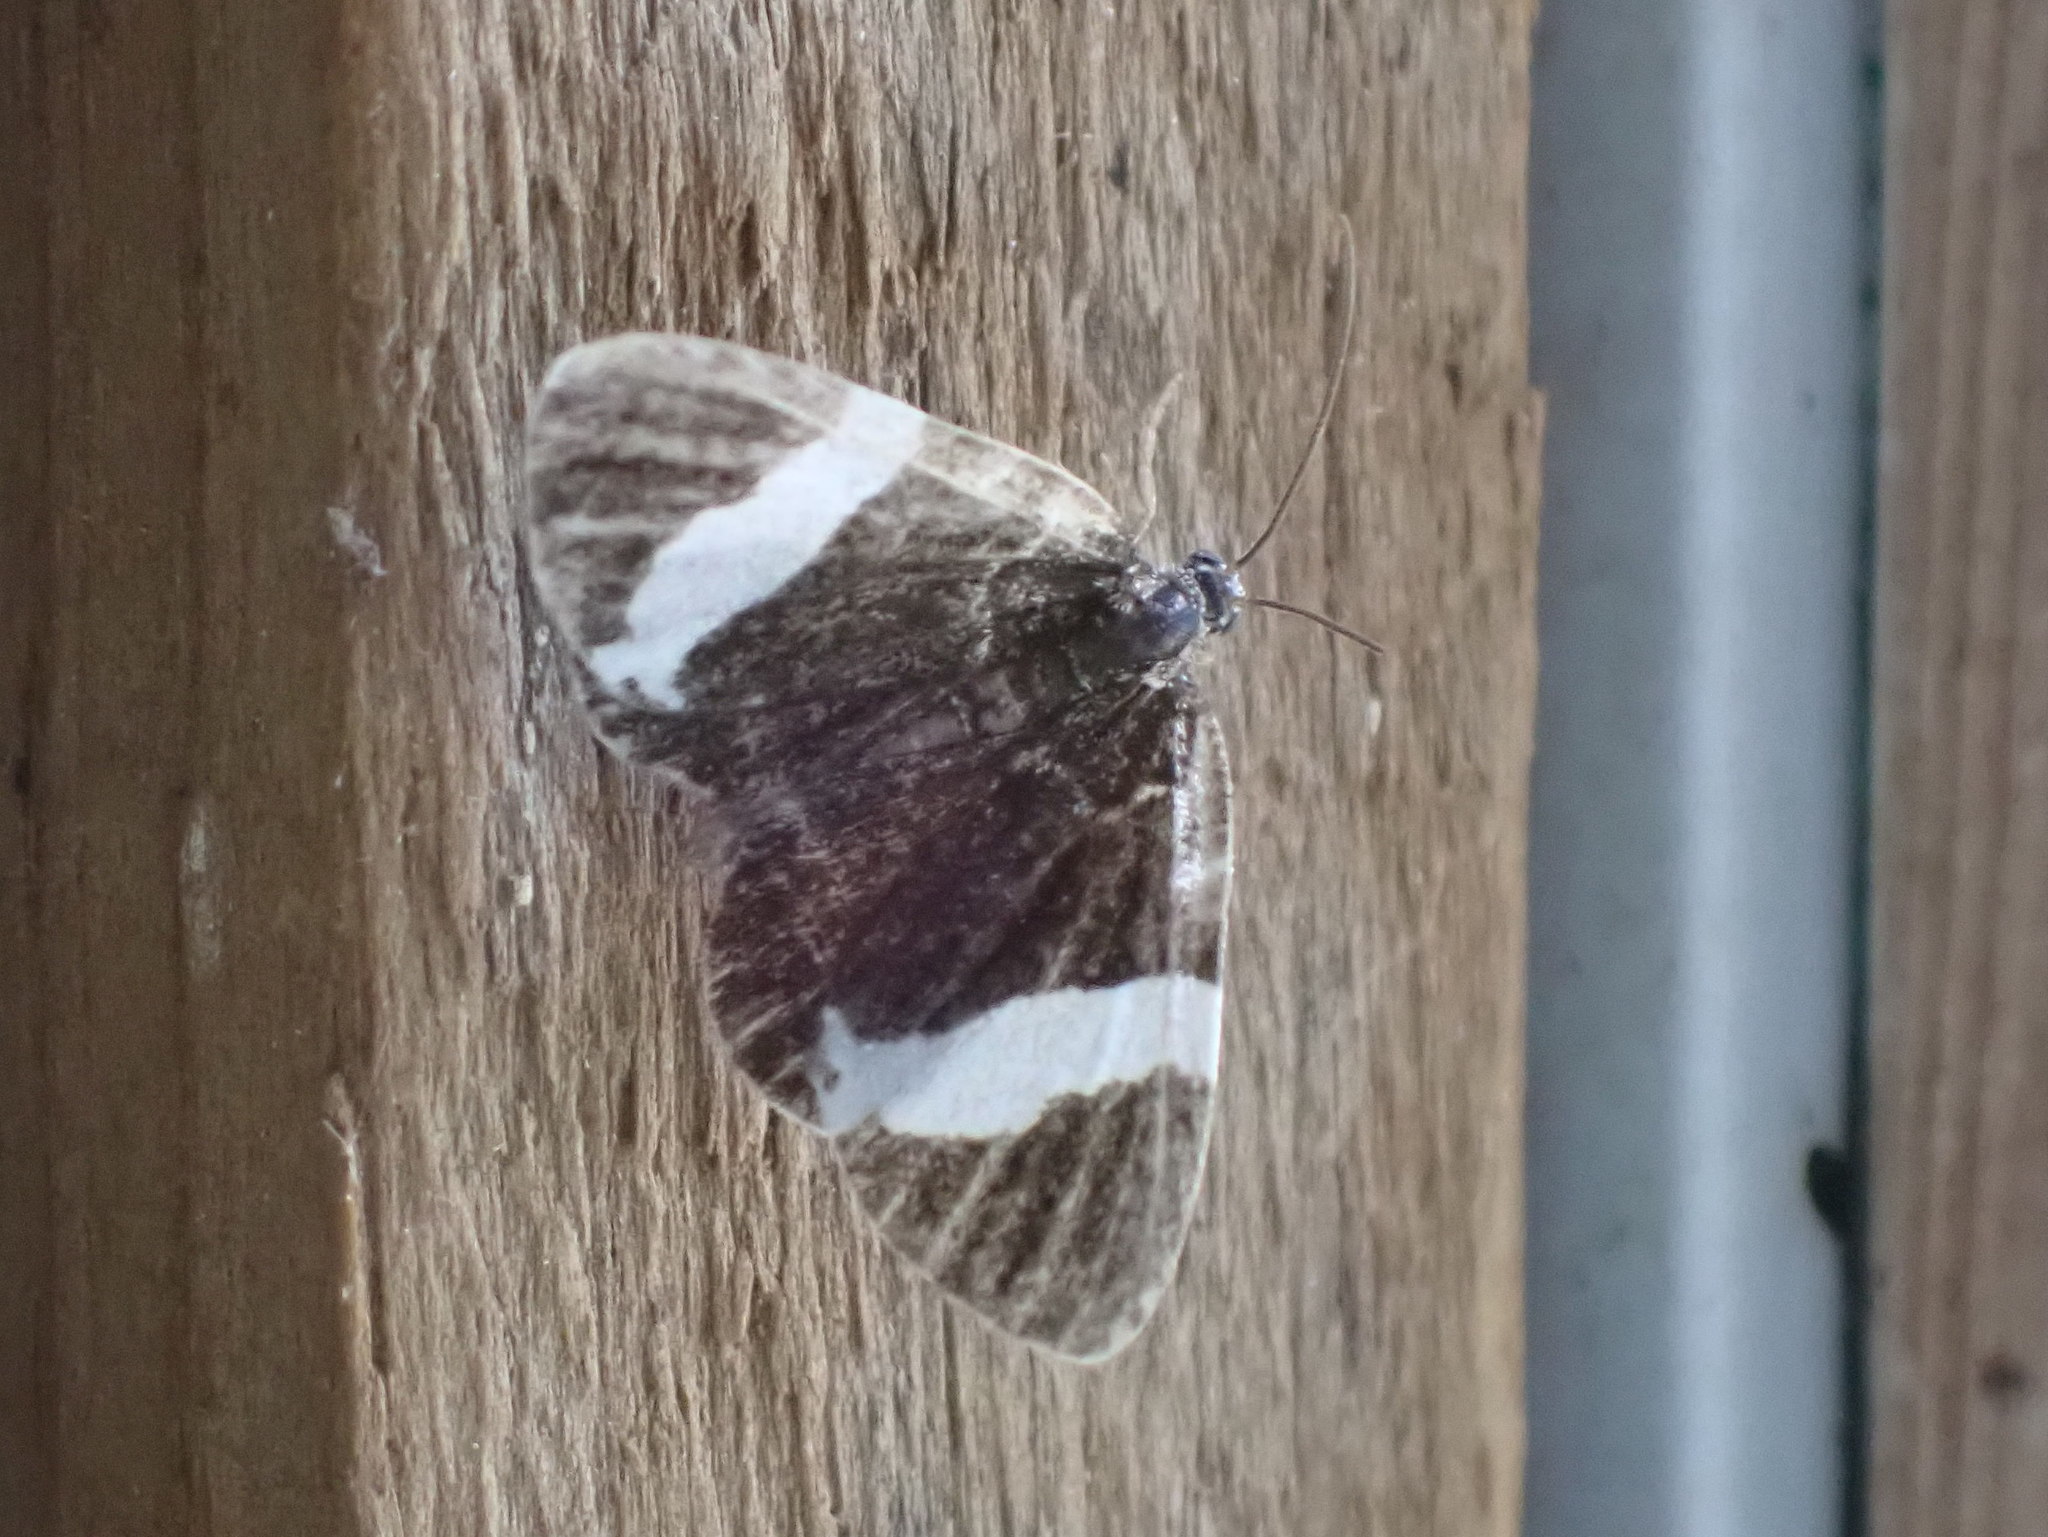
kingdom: Animalia
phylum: Arthropoda
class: Insecta
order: Lepidoptera
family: Geometridae
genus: Trichodezia
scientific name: Trichodezia albovittata
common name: White striped black
